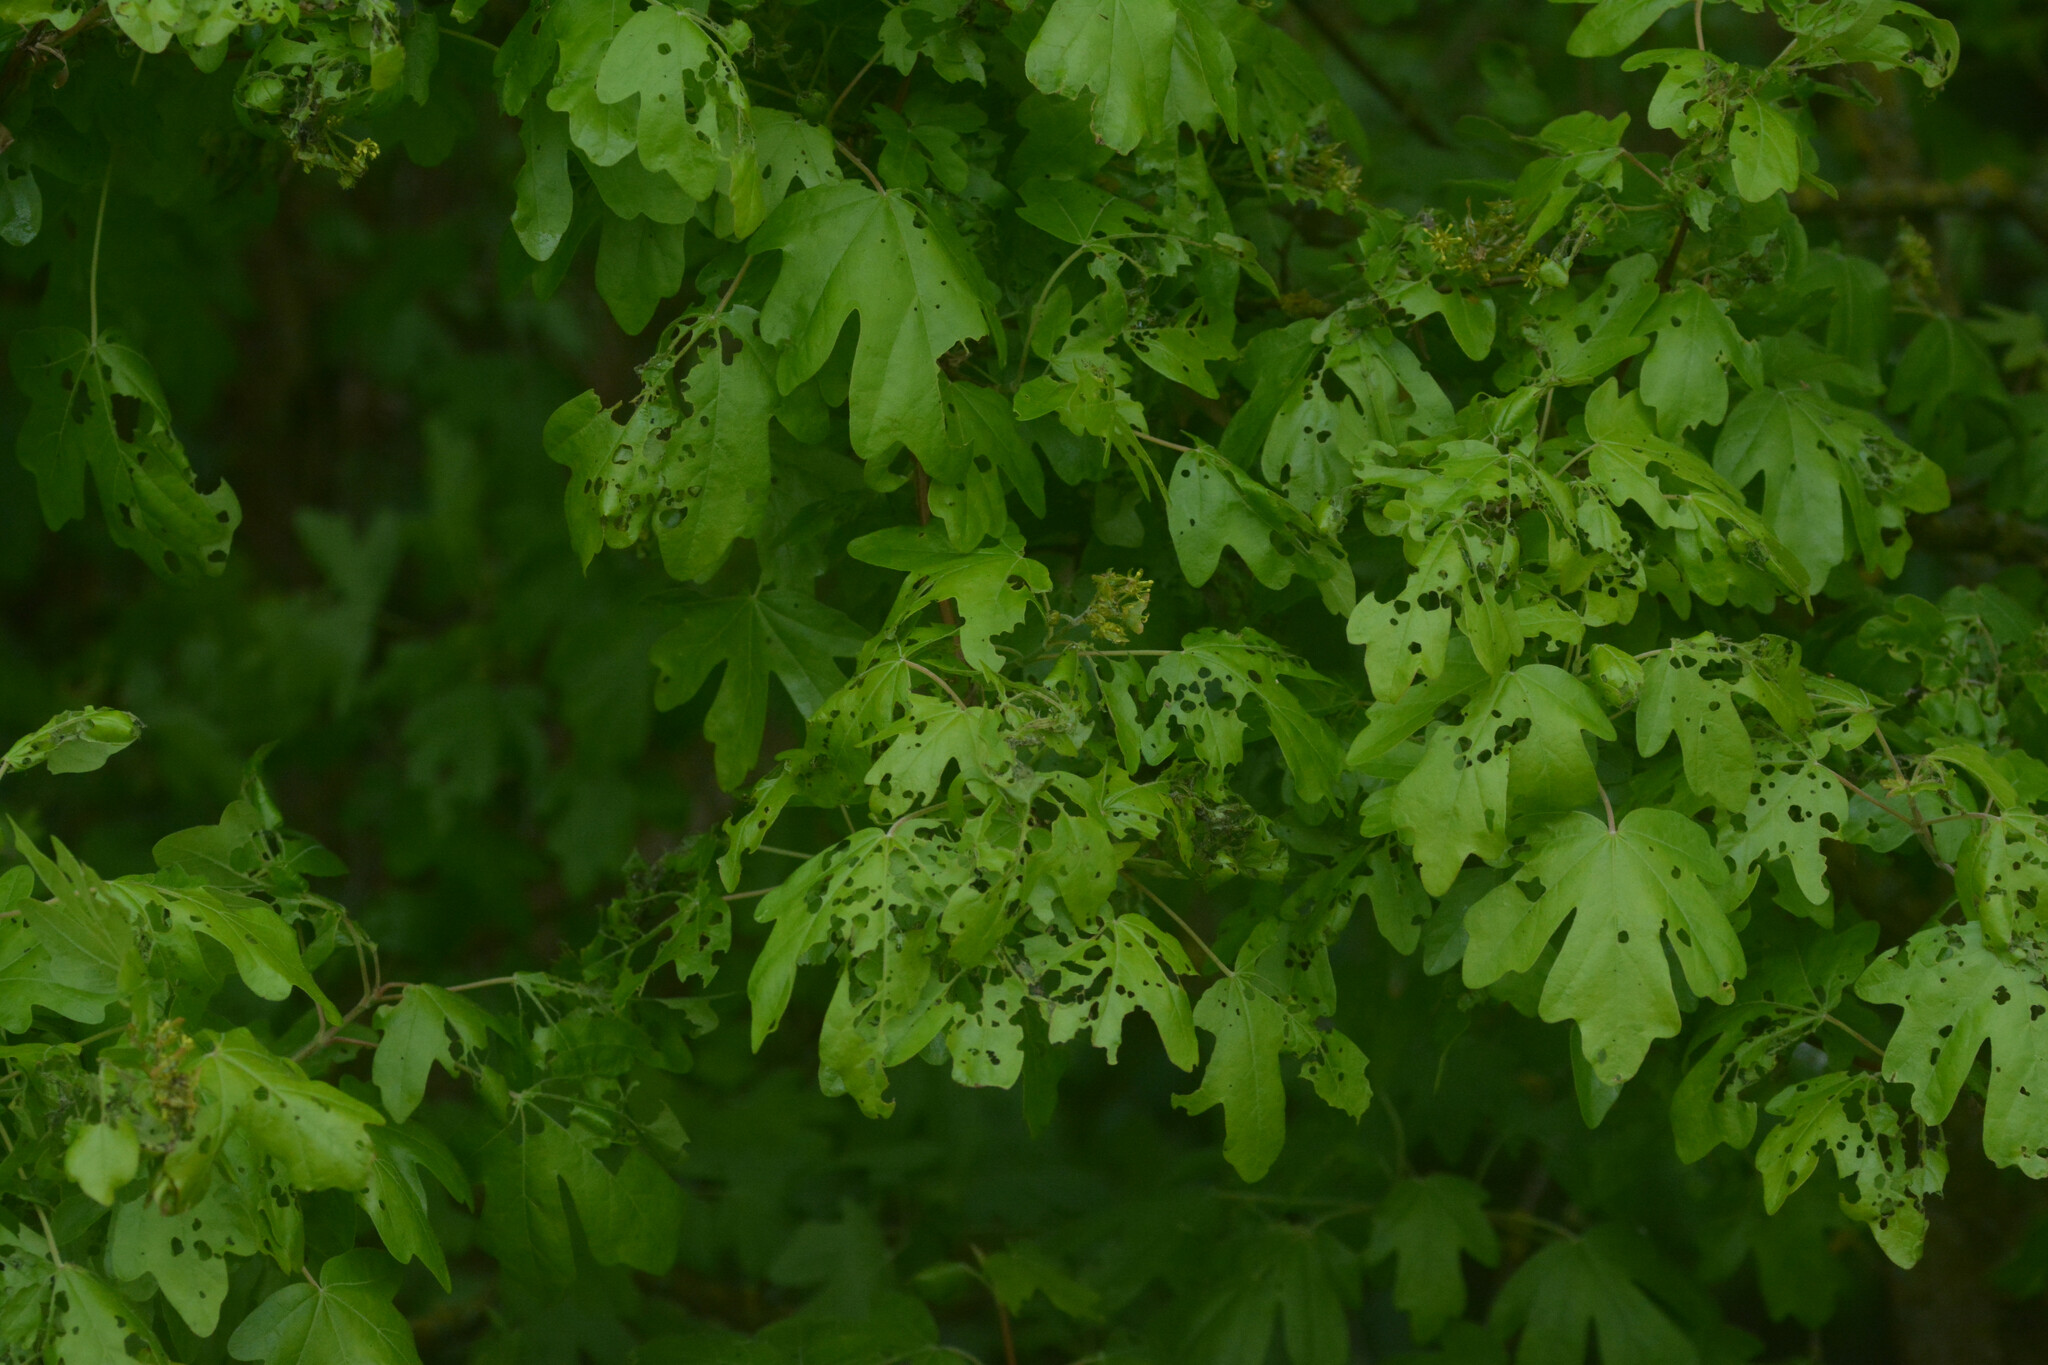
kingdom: Plantae
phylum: Tracheophyta
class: Magnoliopsida
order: Sapindales
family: Sapindaceae
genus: Acer
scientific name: Acer campestre
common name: Field maple
